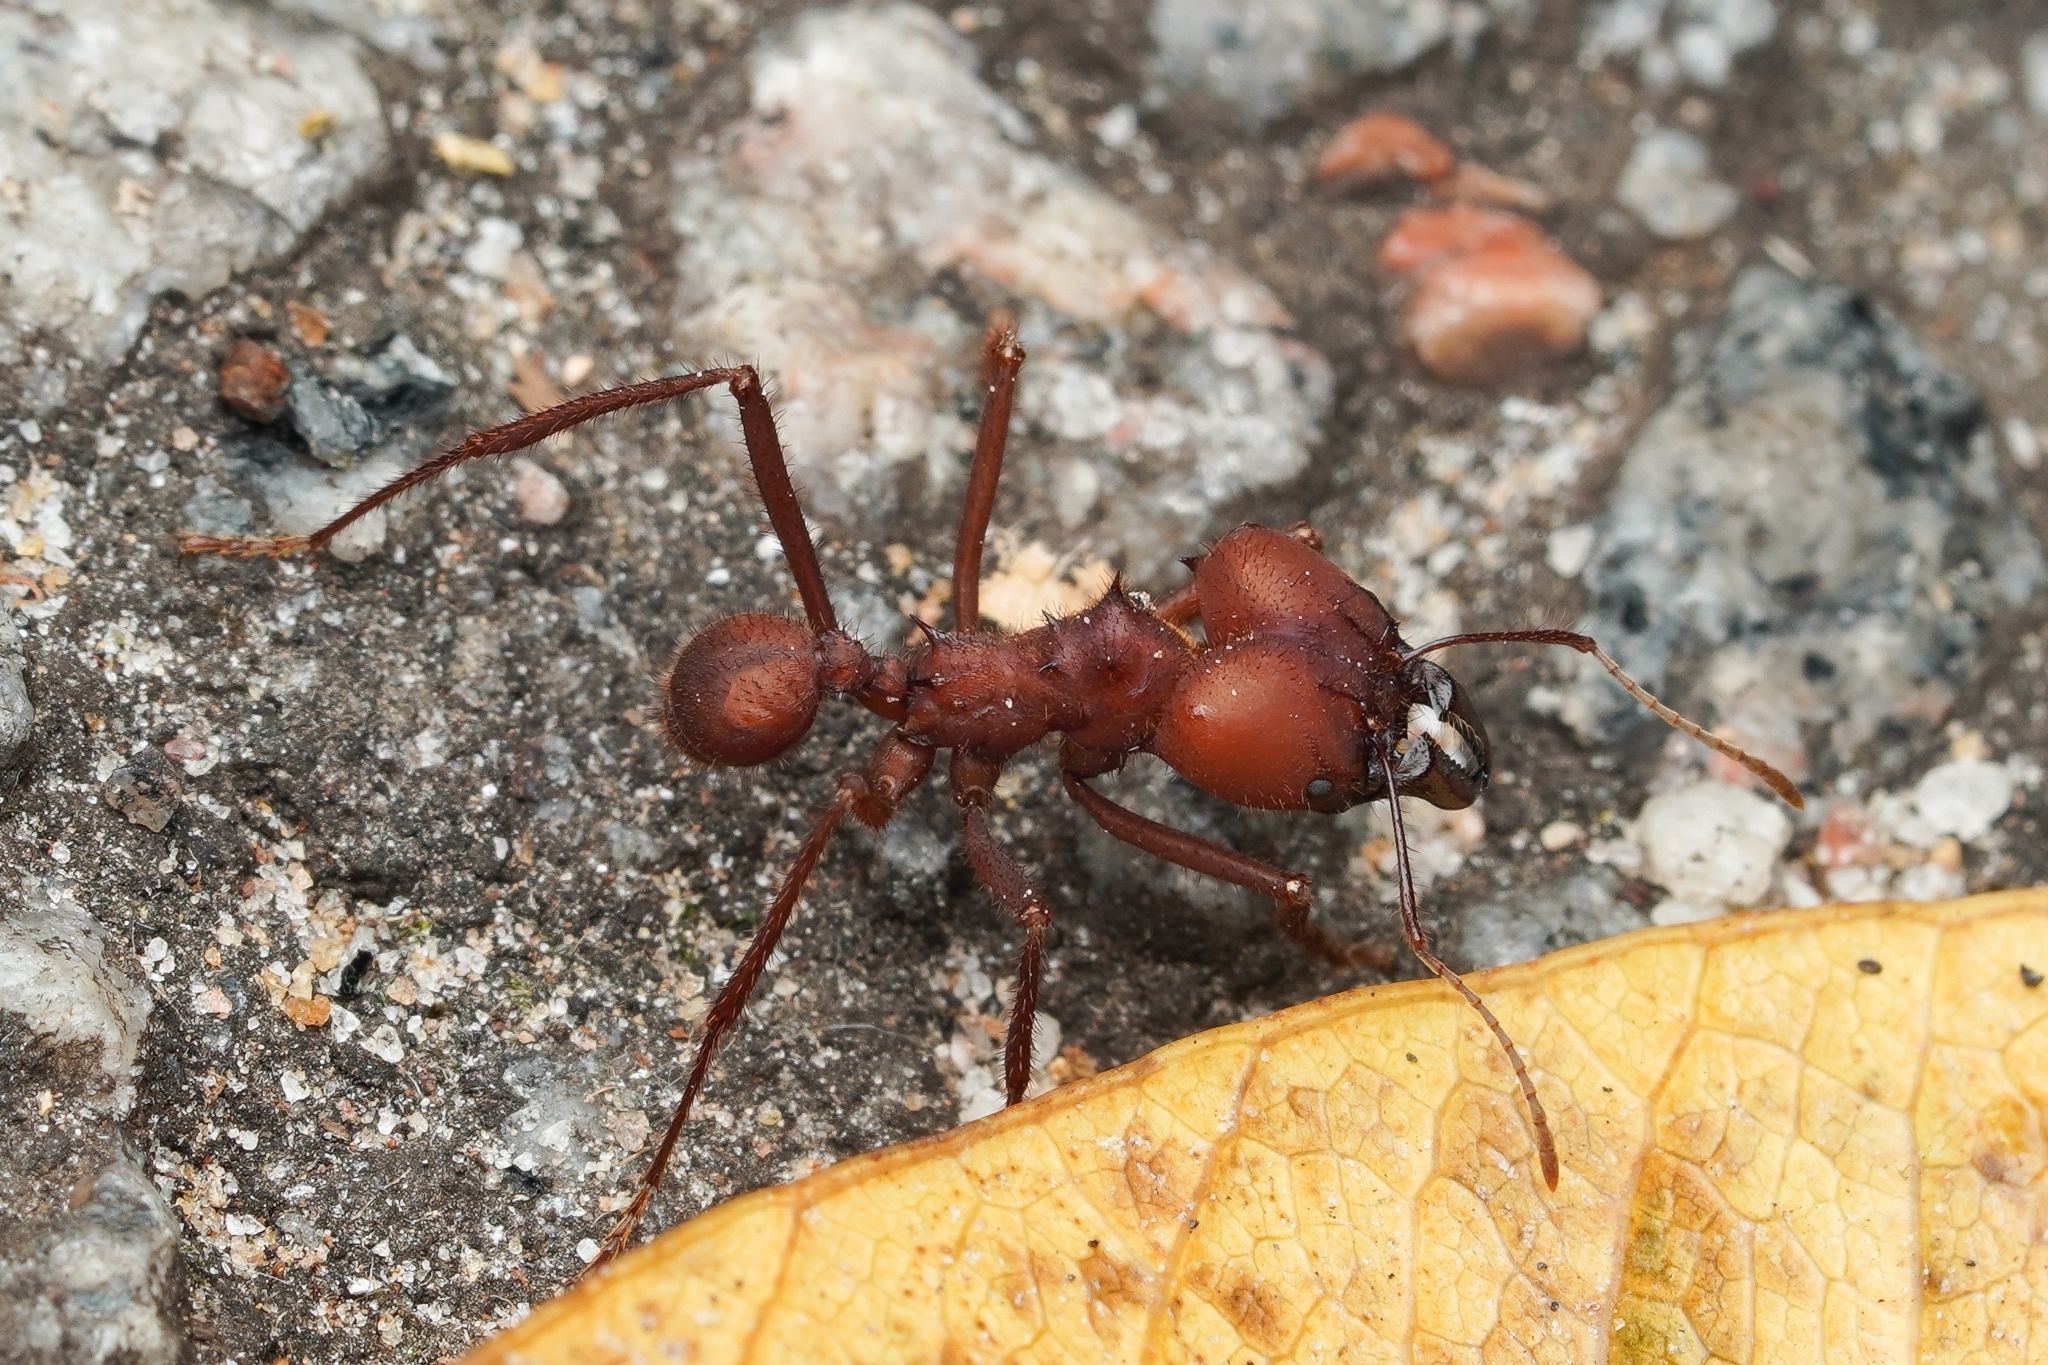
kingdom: Animalia
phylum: Arthropoda
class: Insecta
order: Hymenoptera
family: Formicidae
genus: Atta
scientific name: Atta sexdens
